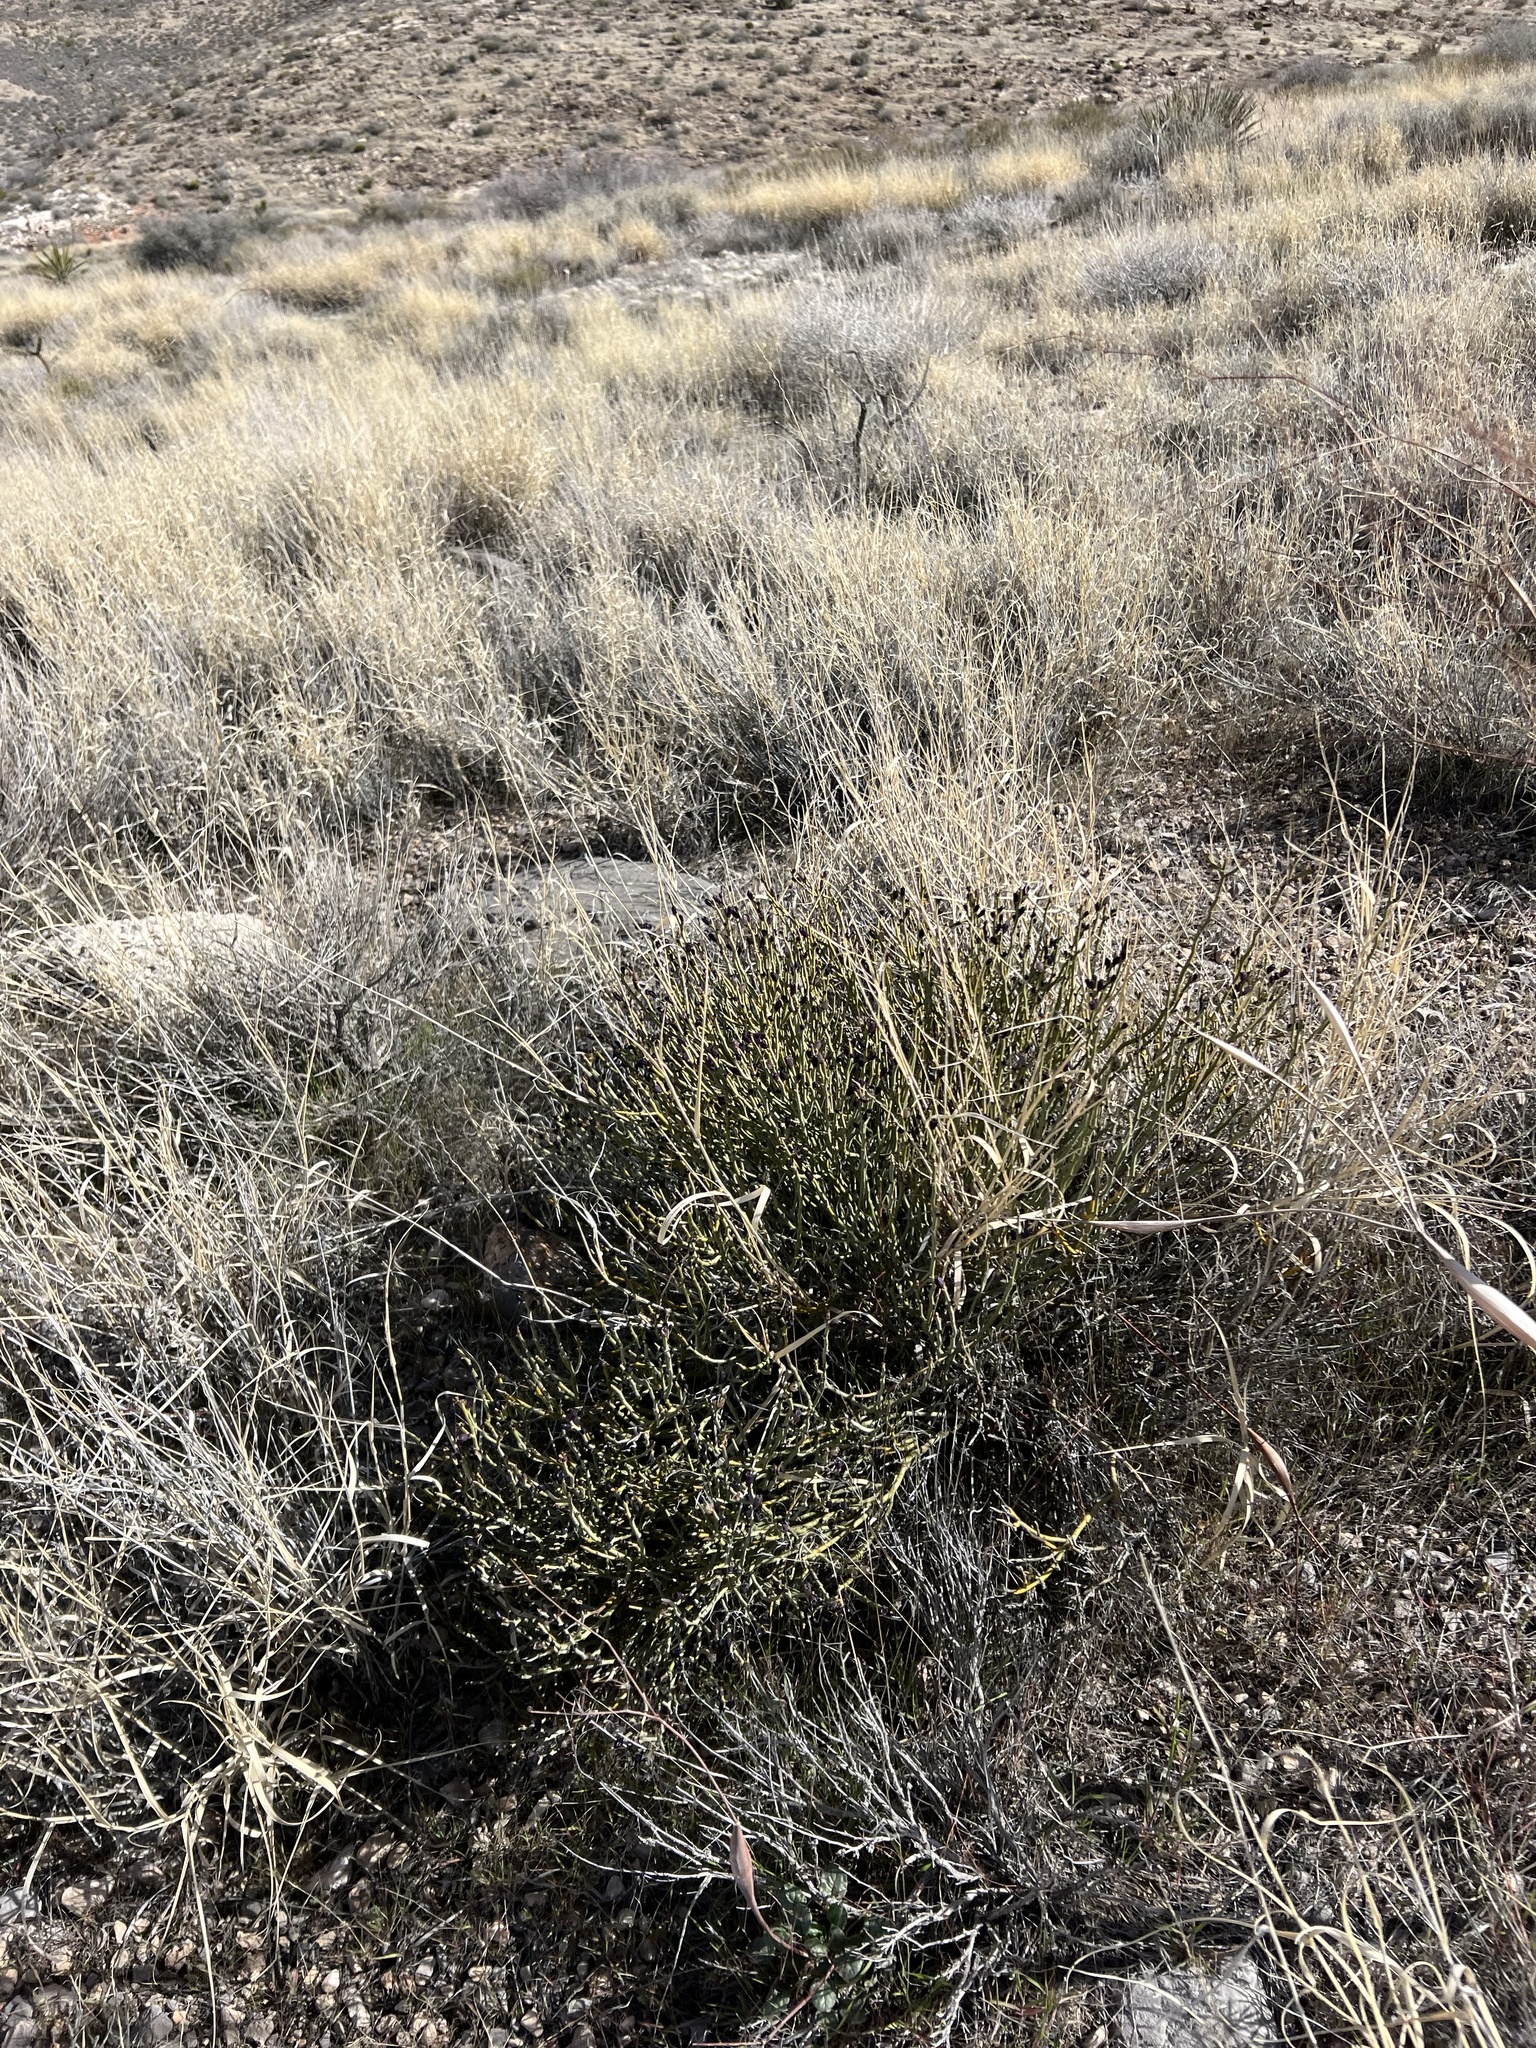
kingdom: Plantae
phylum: Tracheophyta
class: Magnoliopsida
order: Sapindales
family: Rutaceae
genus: Thamnosma
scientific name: Thamnosma montana
